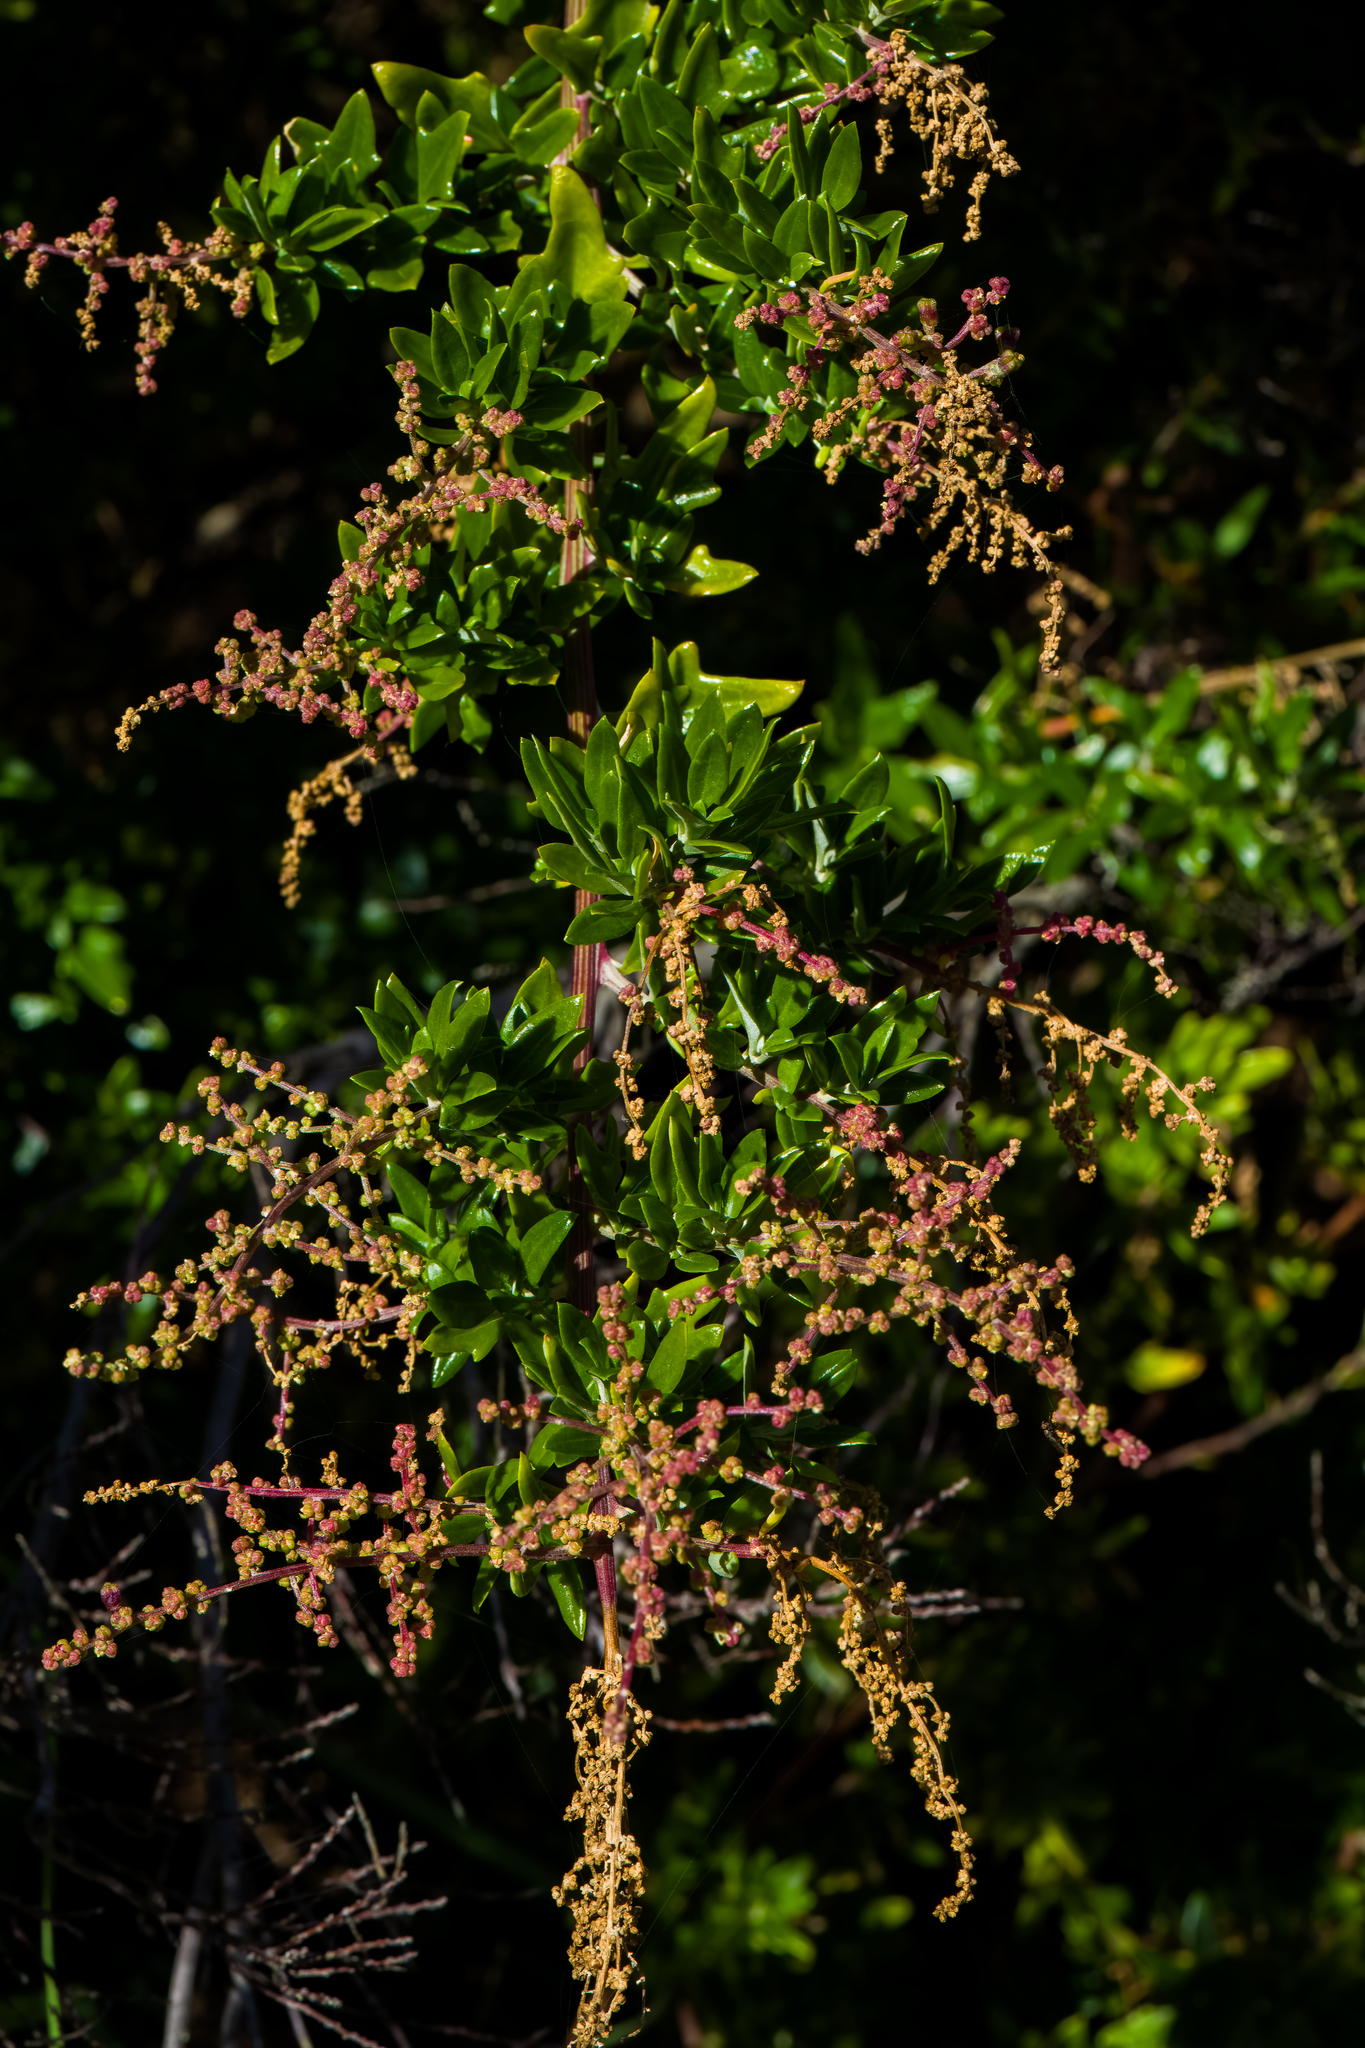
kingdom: Plantae
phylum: Tracheophyta
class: Magnoliopsida
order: Caryophyllales
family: Amaranthaceae
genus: Chenopodium
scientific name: Chenopodium candolleanum
